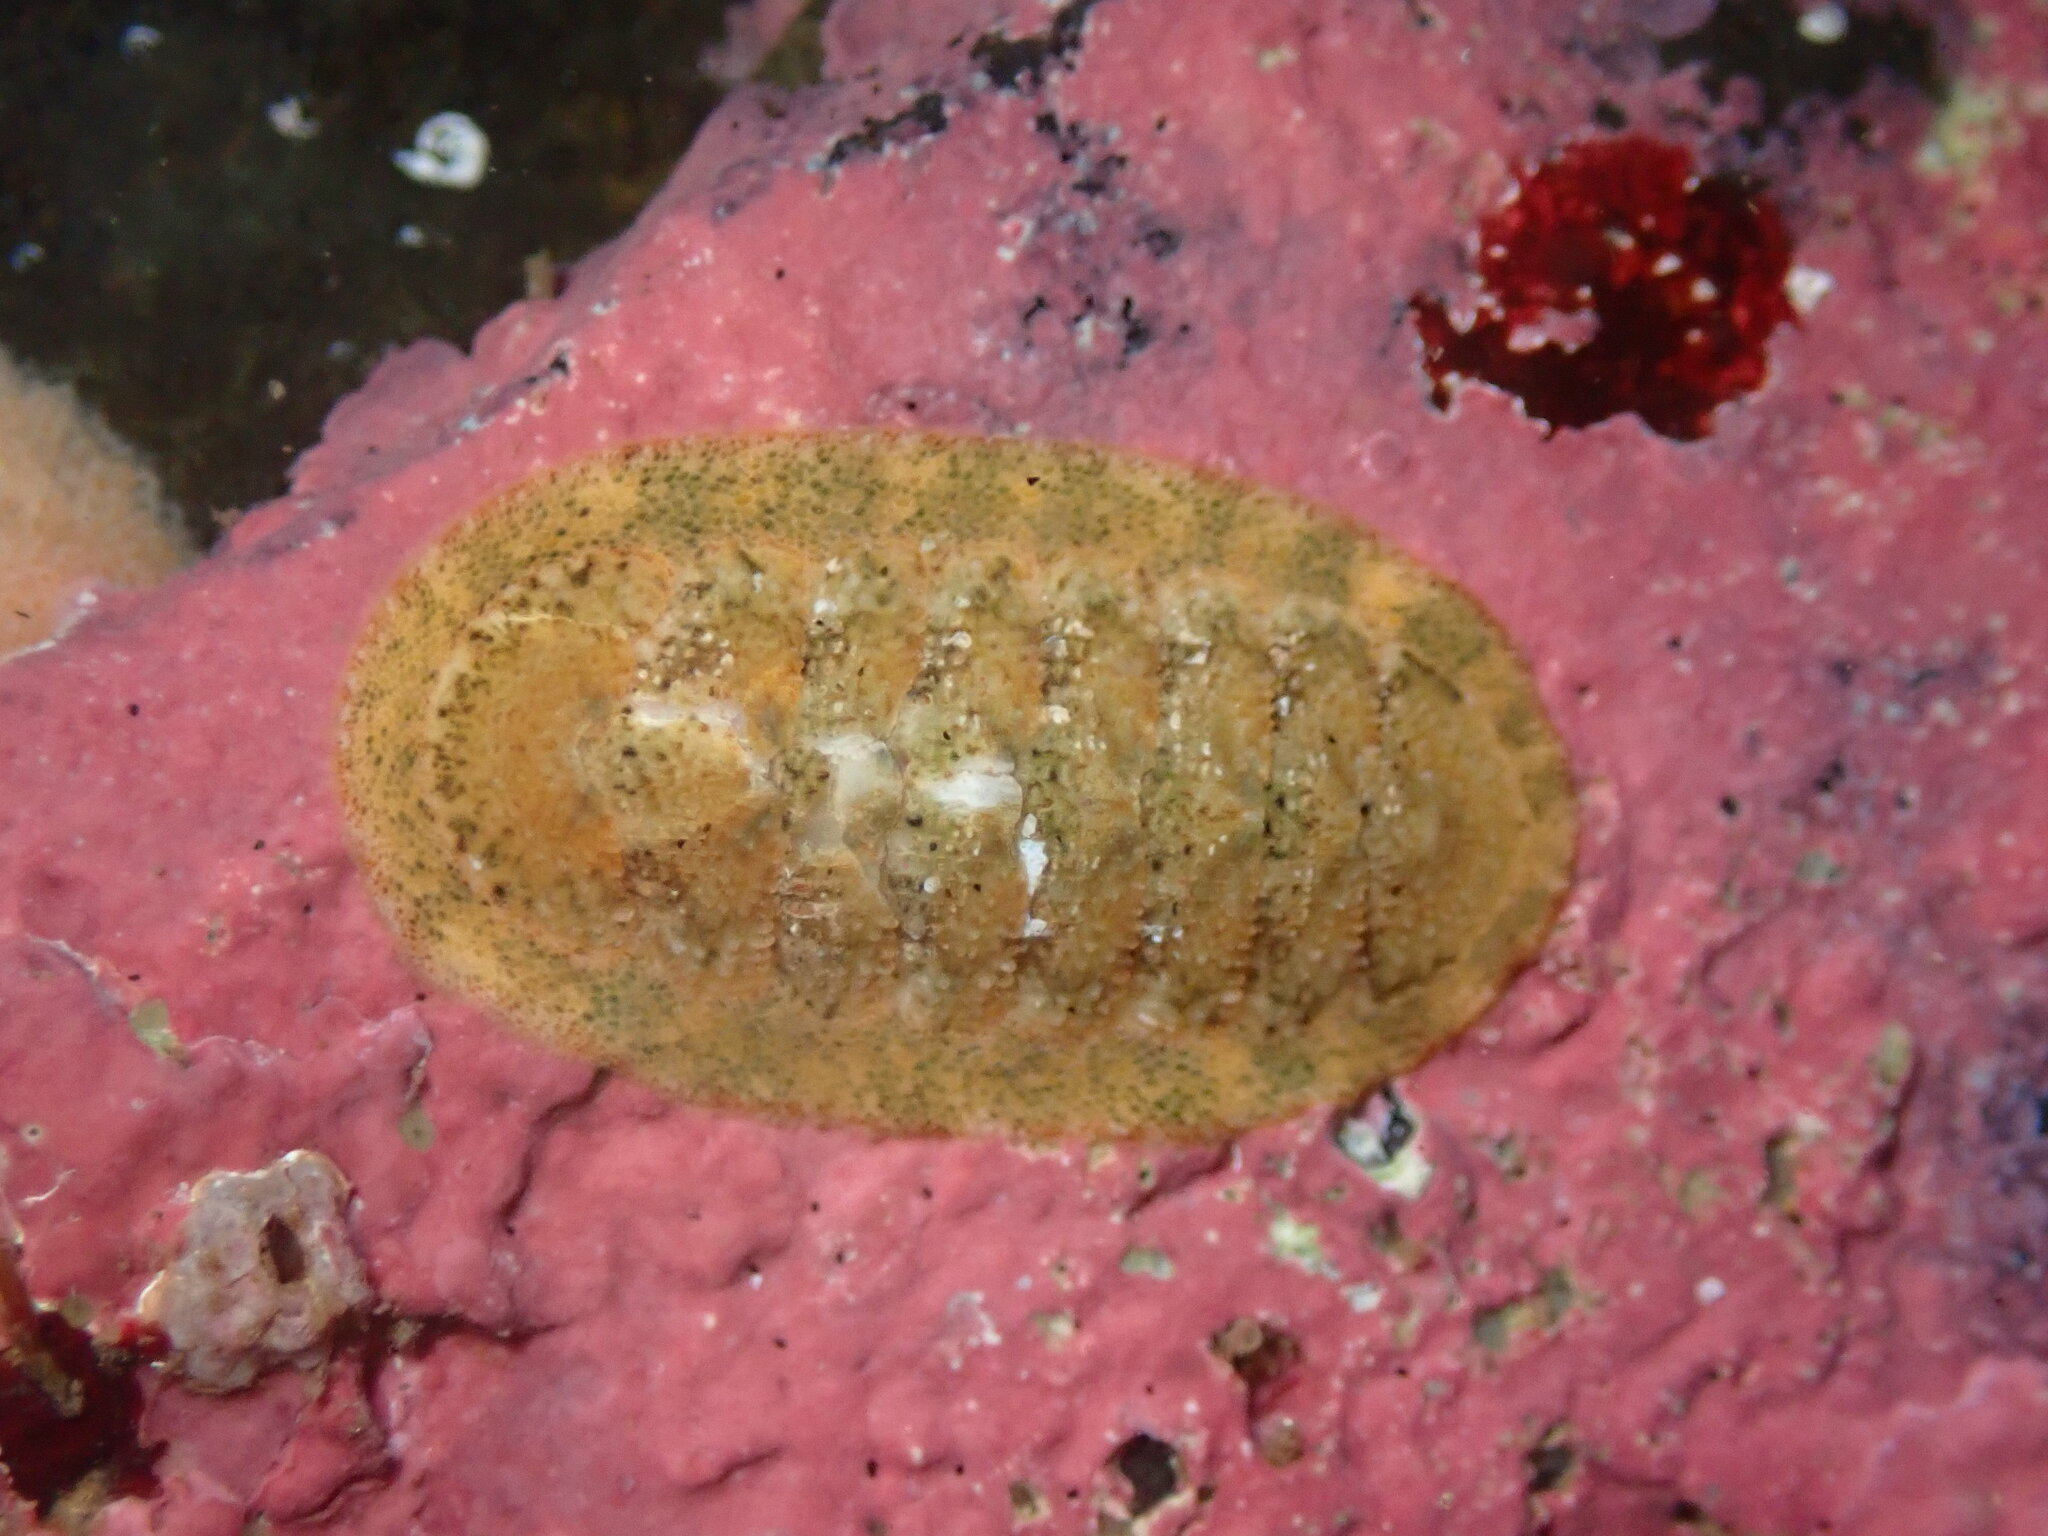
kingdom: Animalia
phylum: Mollusca
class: Polyplacophora
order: Chitonida
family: Ischnochitonidae
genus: Lepidozona
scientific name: Lepidozona pectinulata
